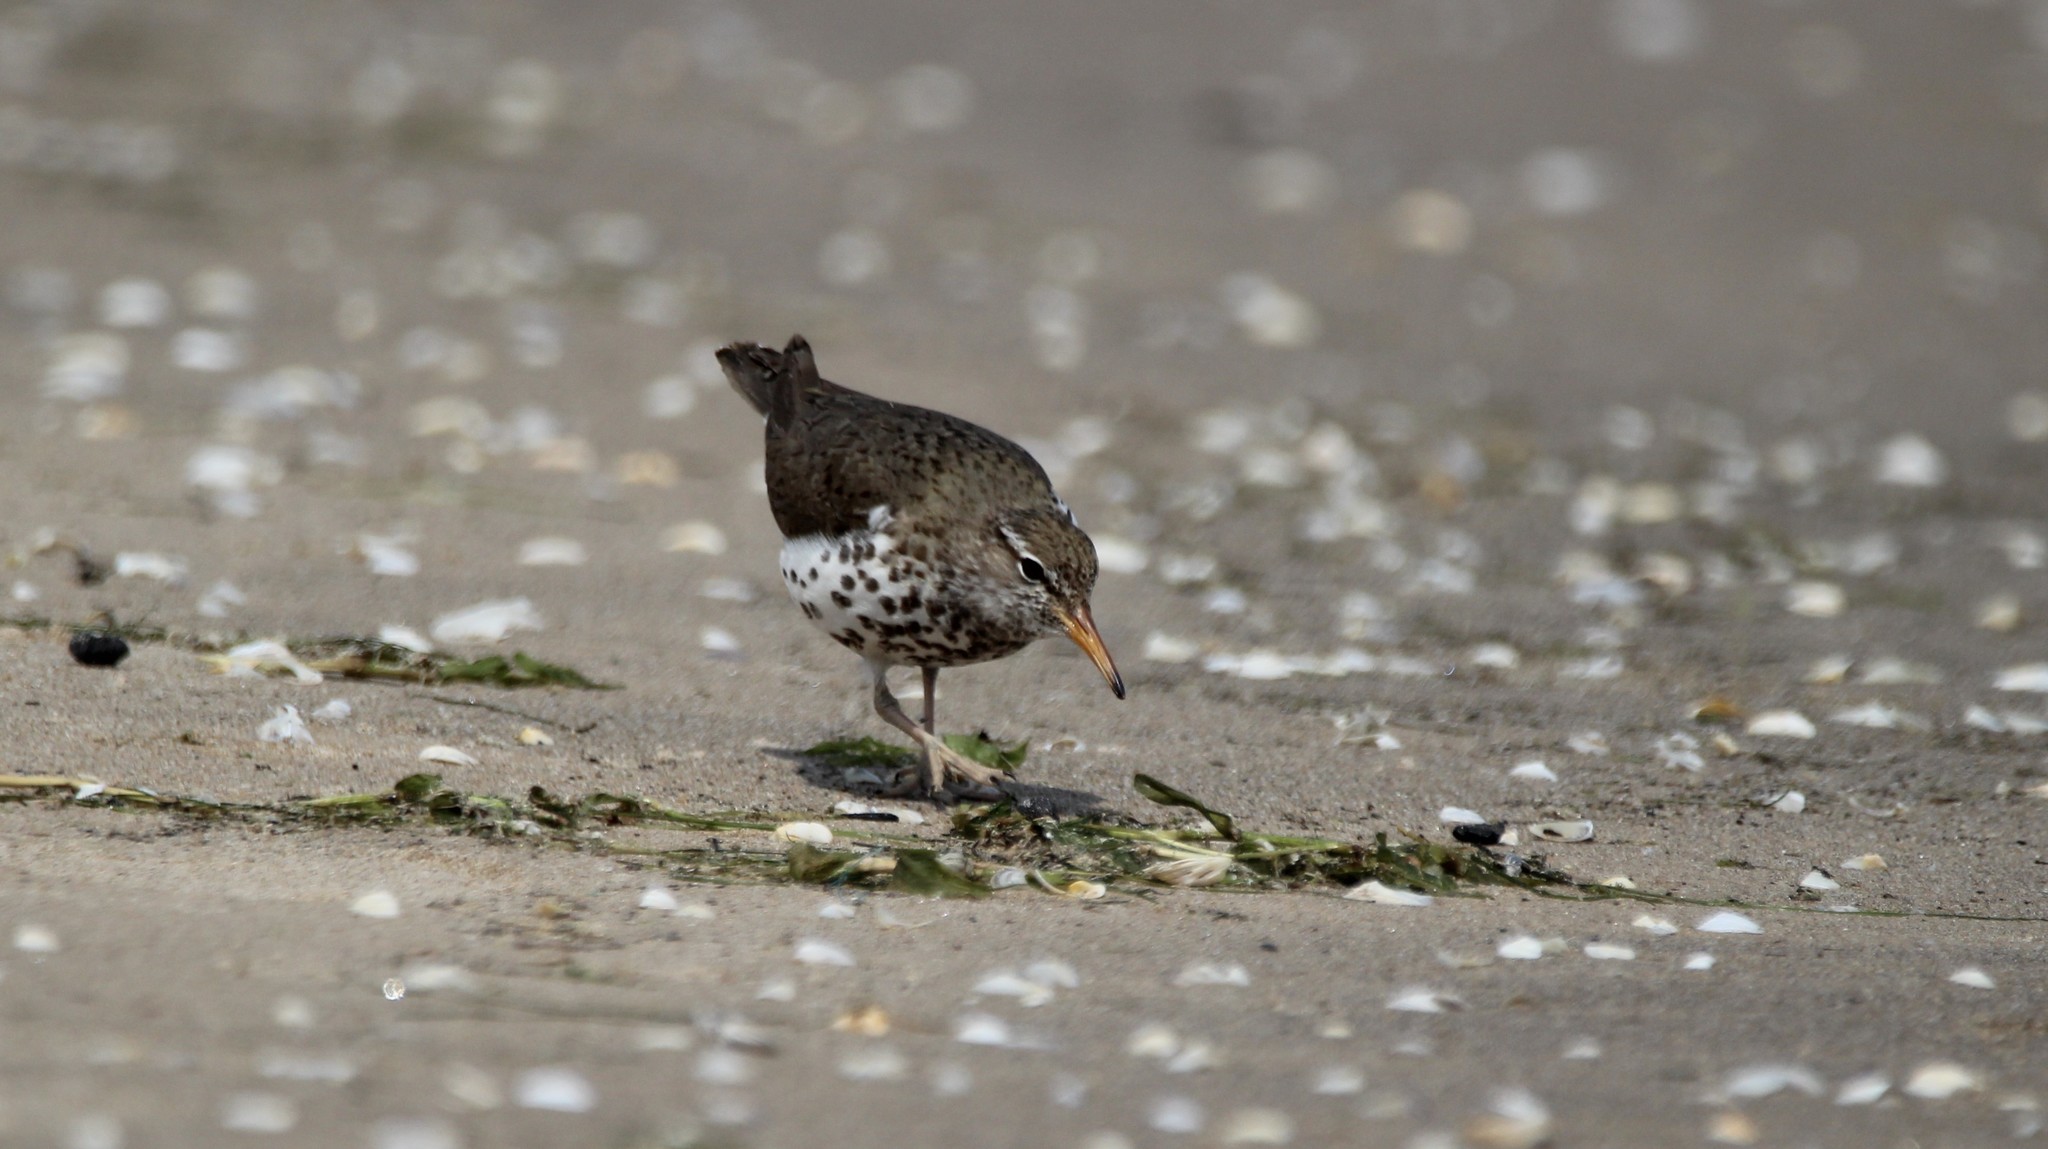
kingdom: Animalia
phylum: Chordata
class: Aves
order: Charadriiformes
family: Scolopacidae
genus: Actitis
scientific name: Actitis macularius
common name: Spotted sandpiper
